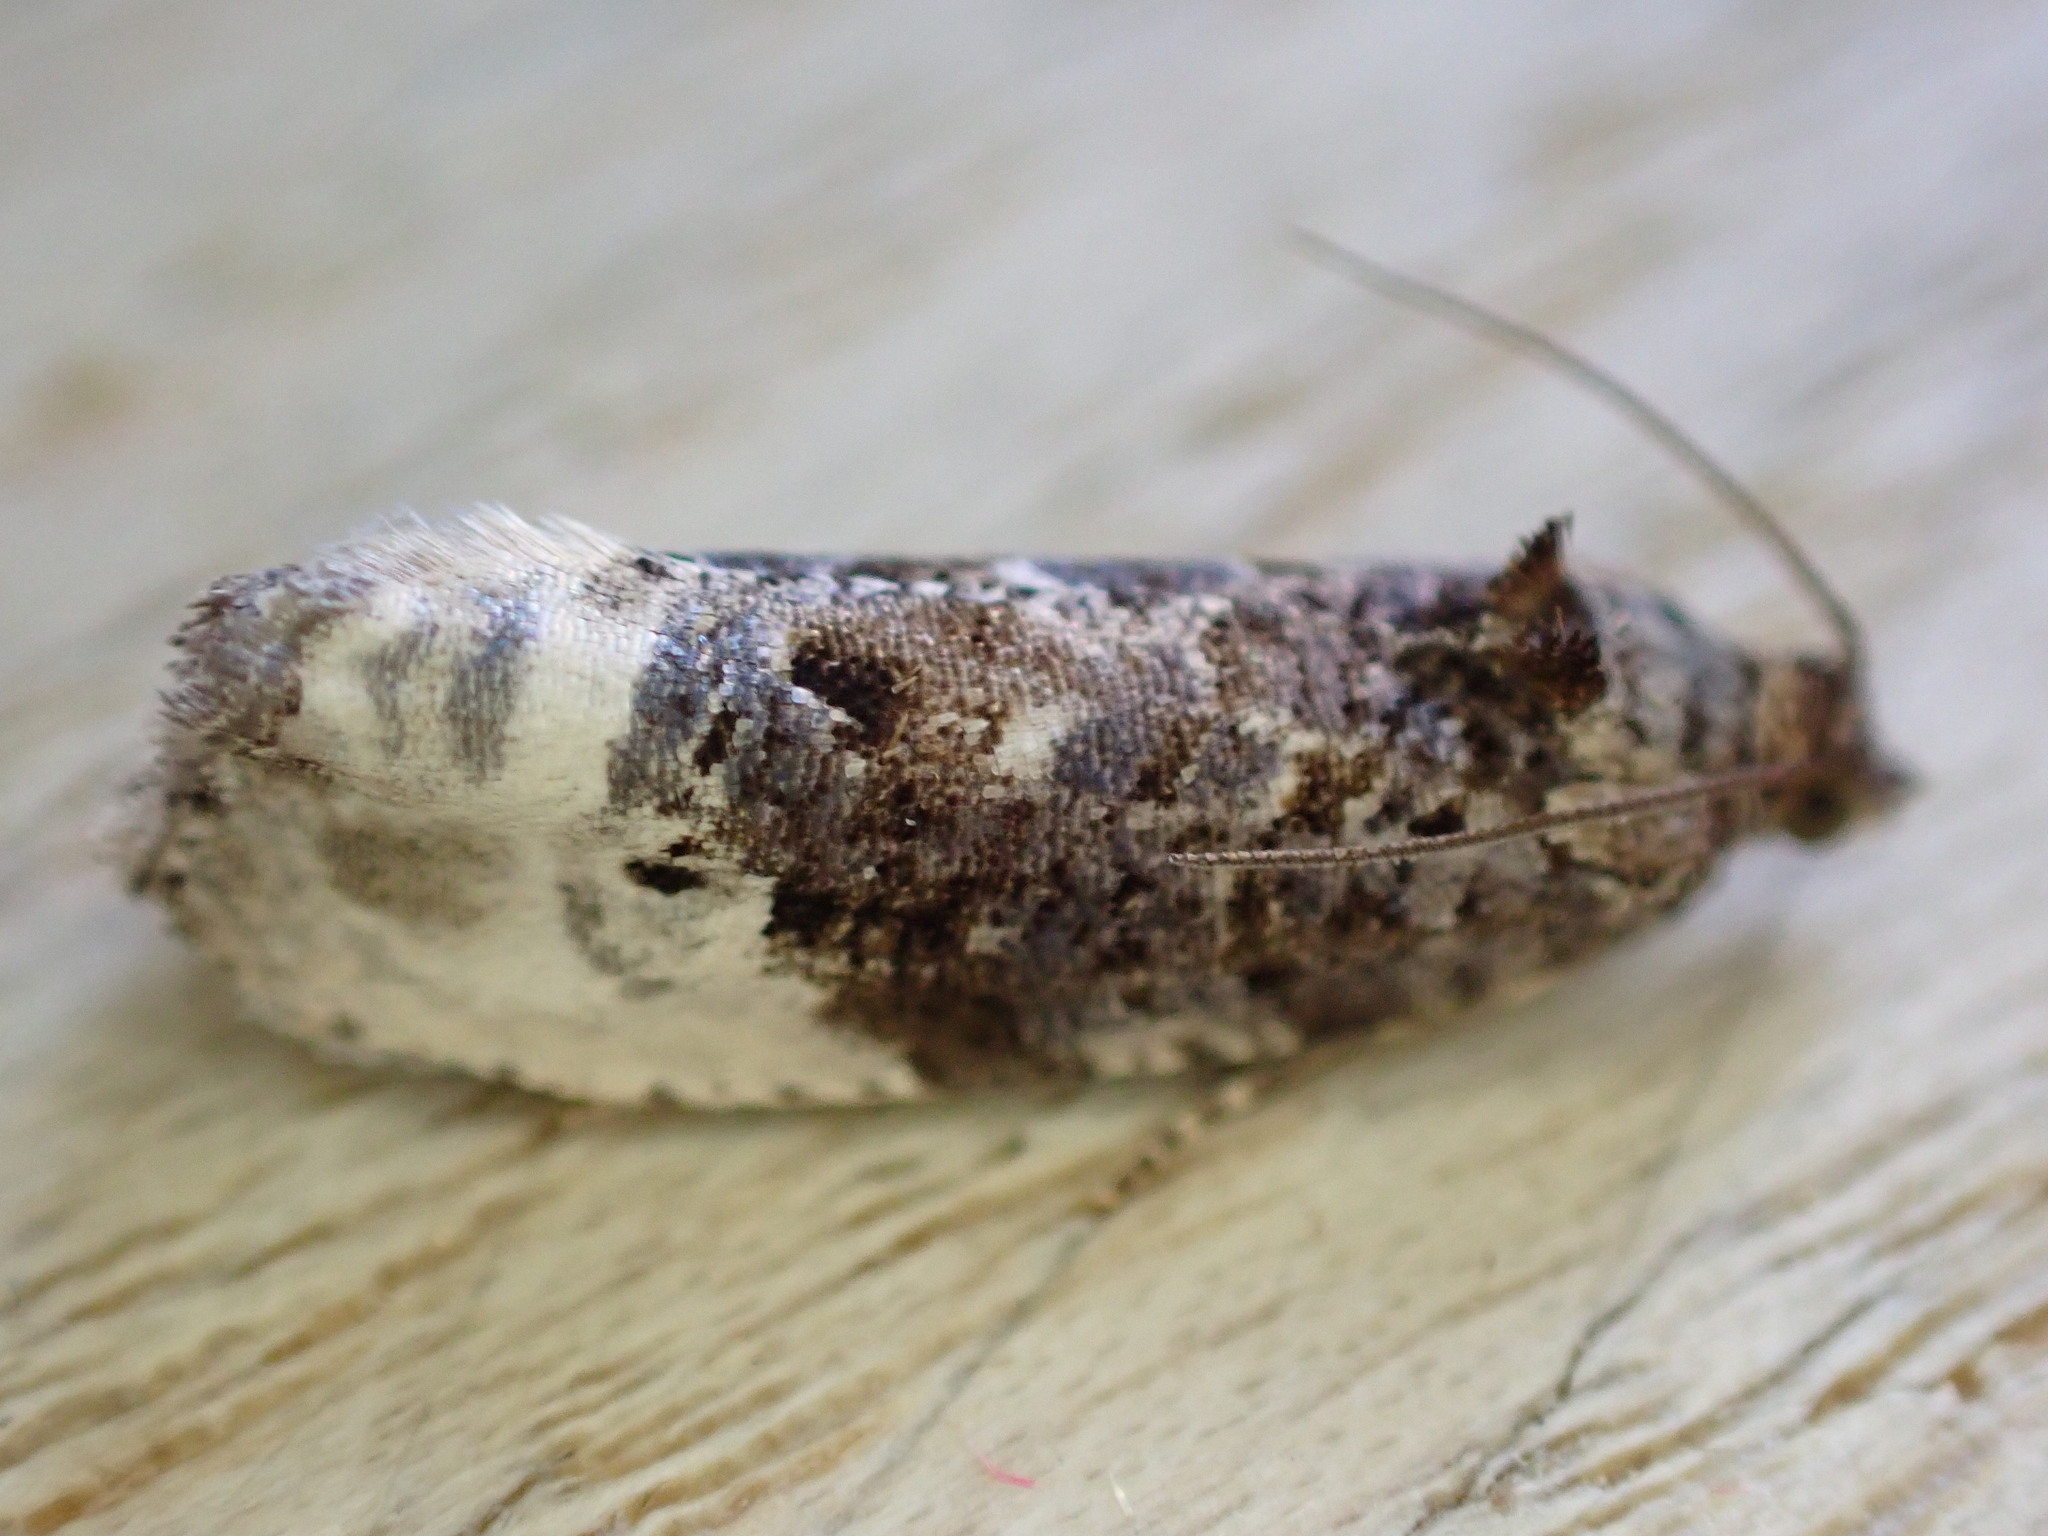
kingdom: Animalia
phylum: Arthropoda
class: Insecta
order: Lepidoptera
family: Tortricidae
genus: Hedya
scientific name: Hedya nubiferana
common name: Marbled orchard tortrix
